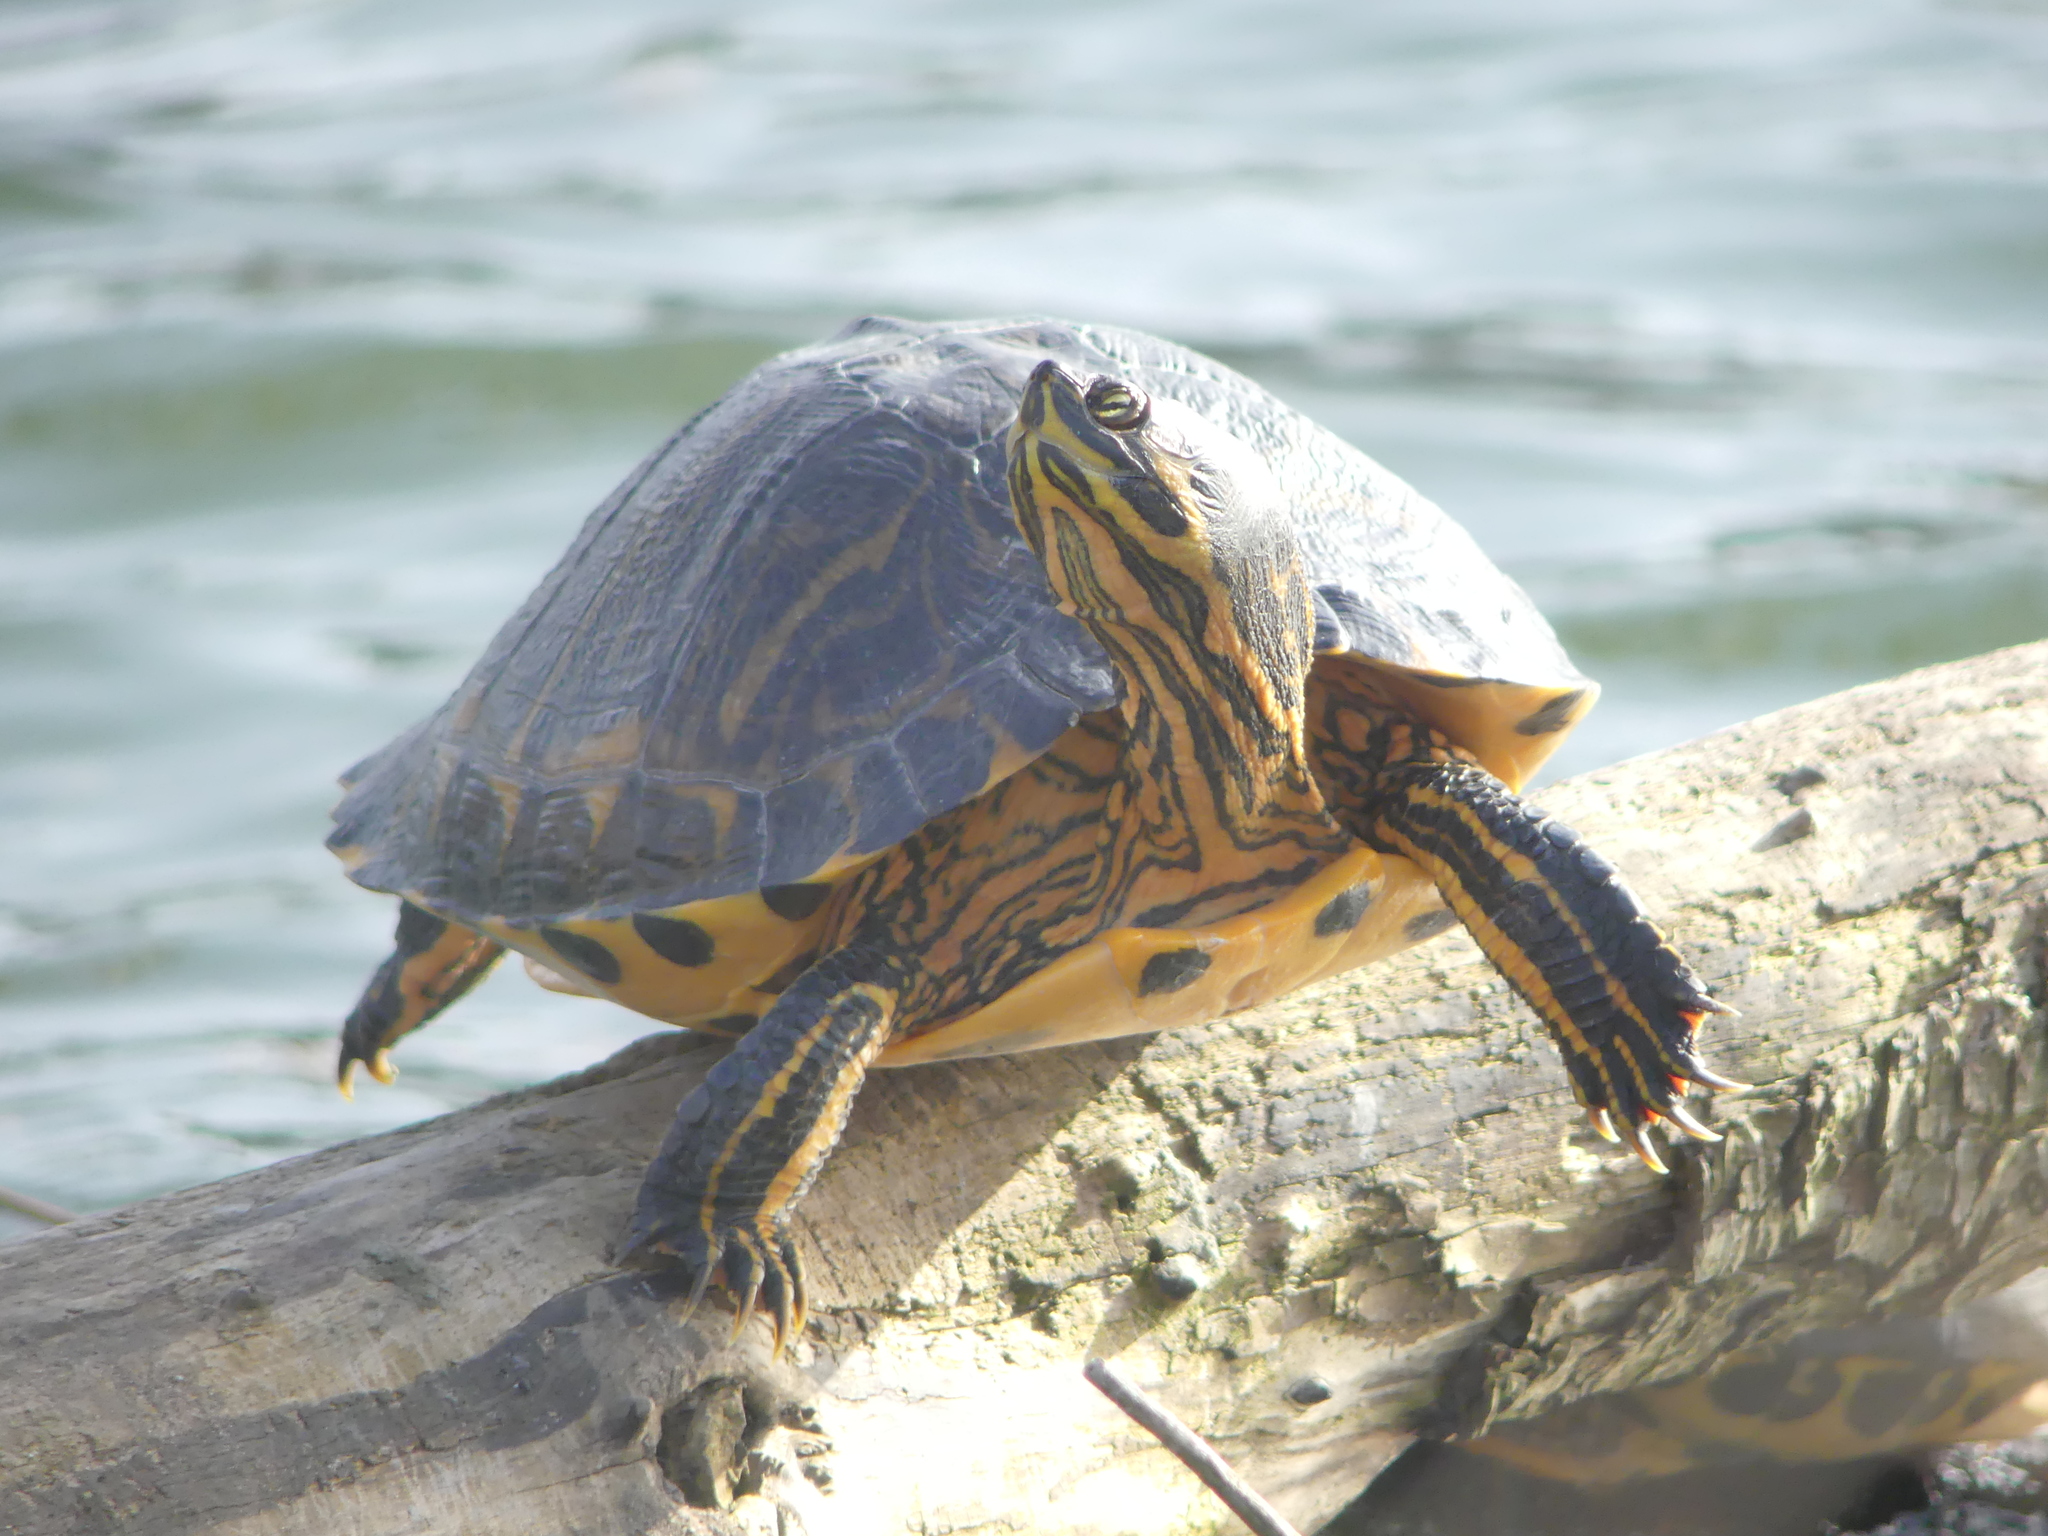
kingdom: Animalia
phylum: Chordata
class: Testudines
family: Emydidae
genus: Trachemys
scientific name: Trachemys scripta
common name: Slider
